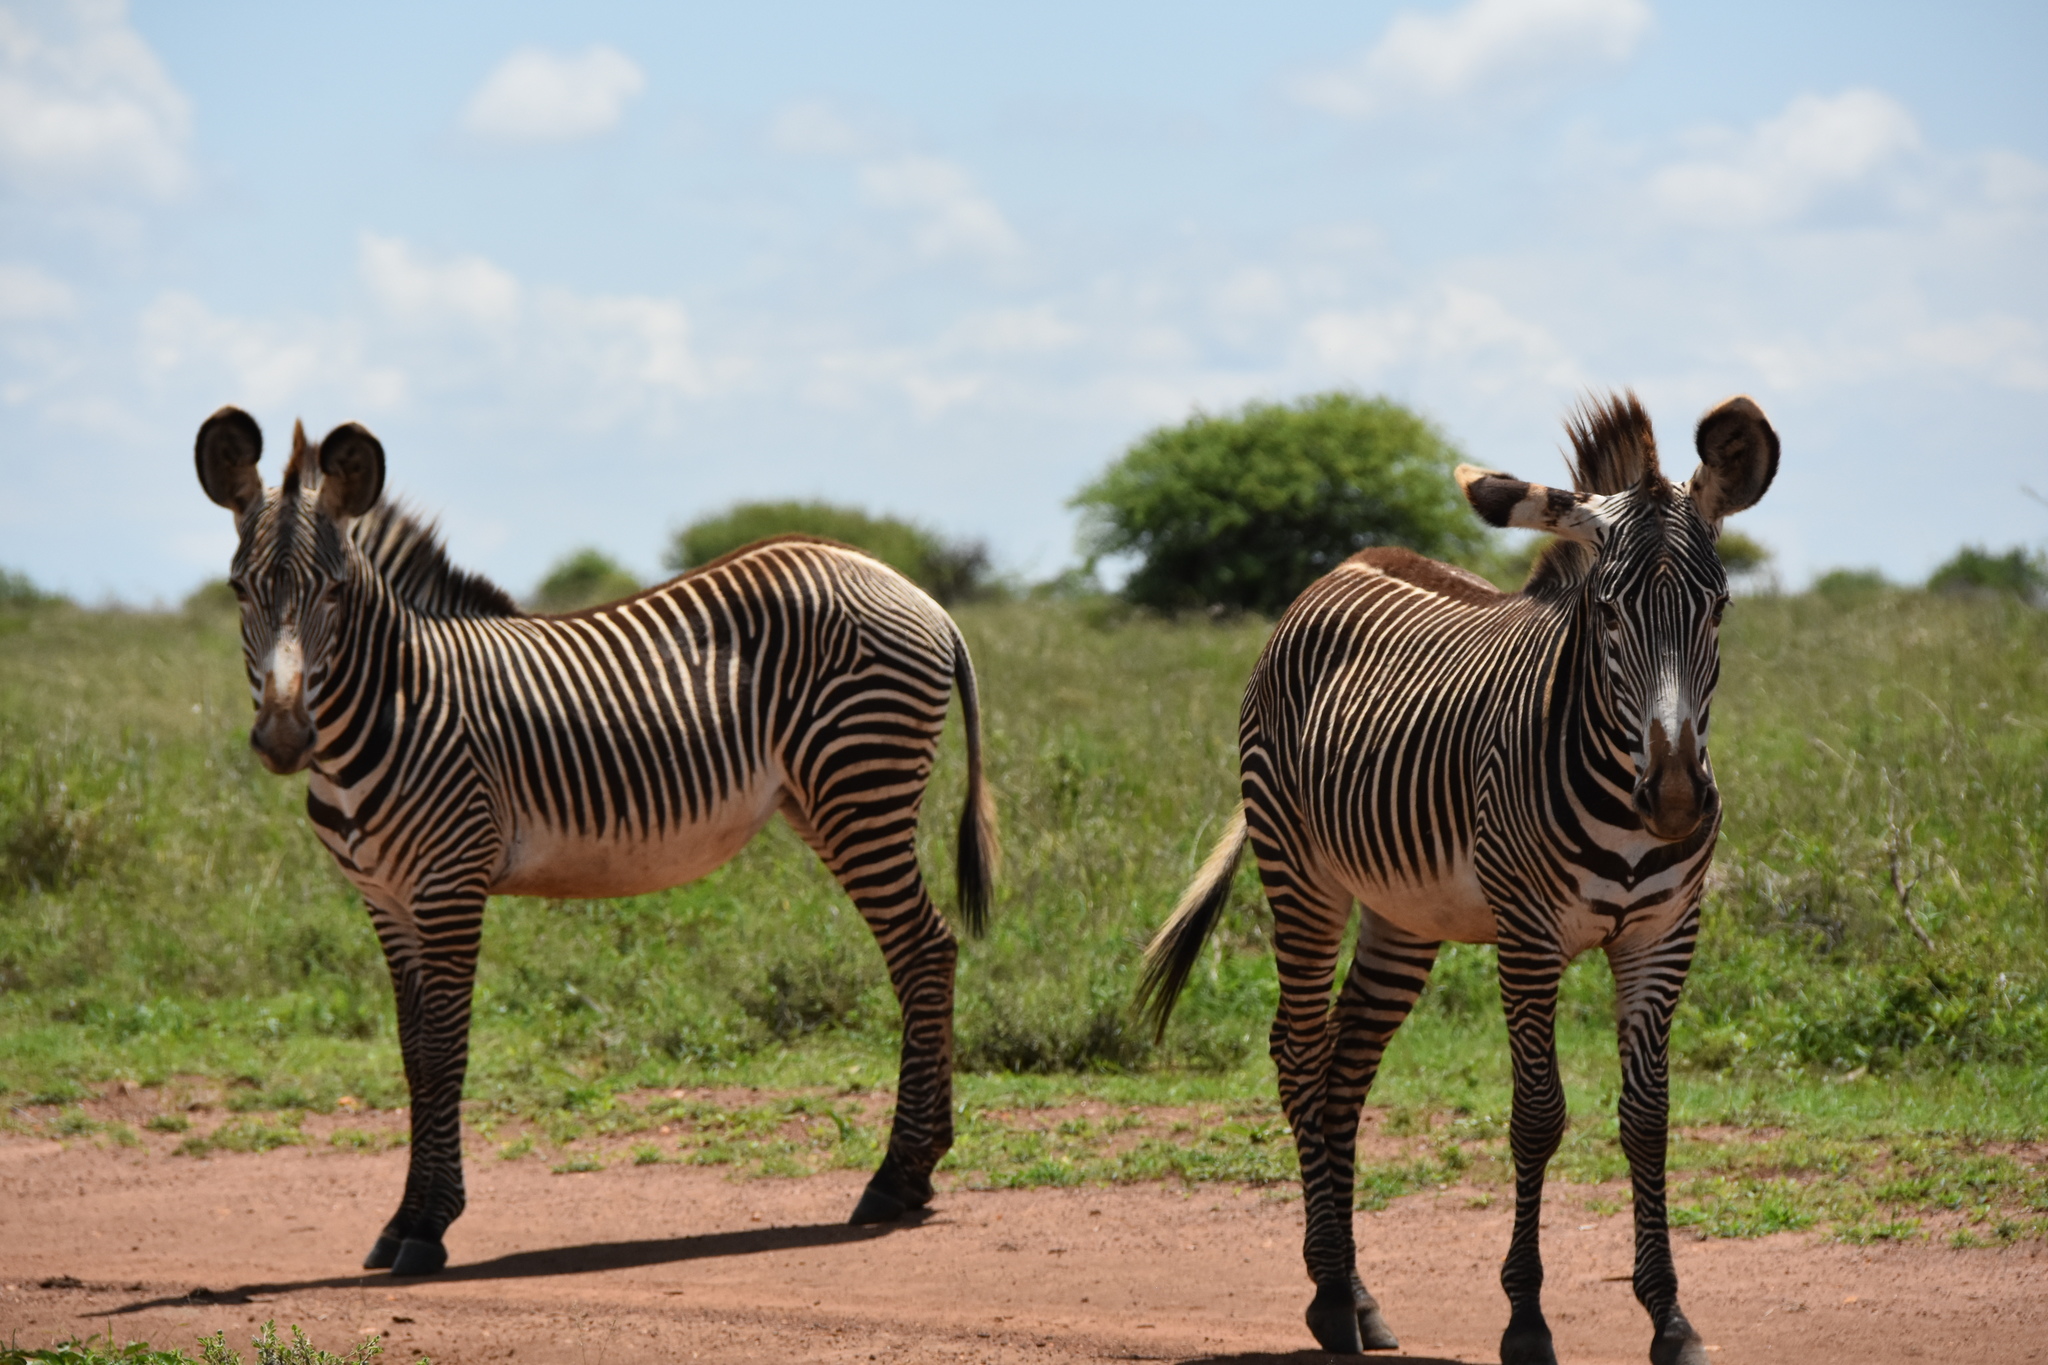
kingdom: Animalia
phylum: Chordata
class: Mammalia
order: Perissodactyla
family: Equidae
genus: Equus
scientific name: Equus grevyi
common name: Grevy's zebra
